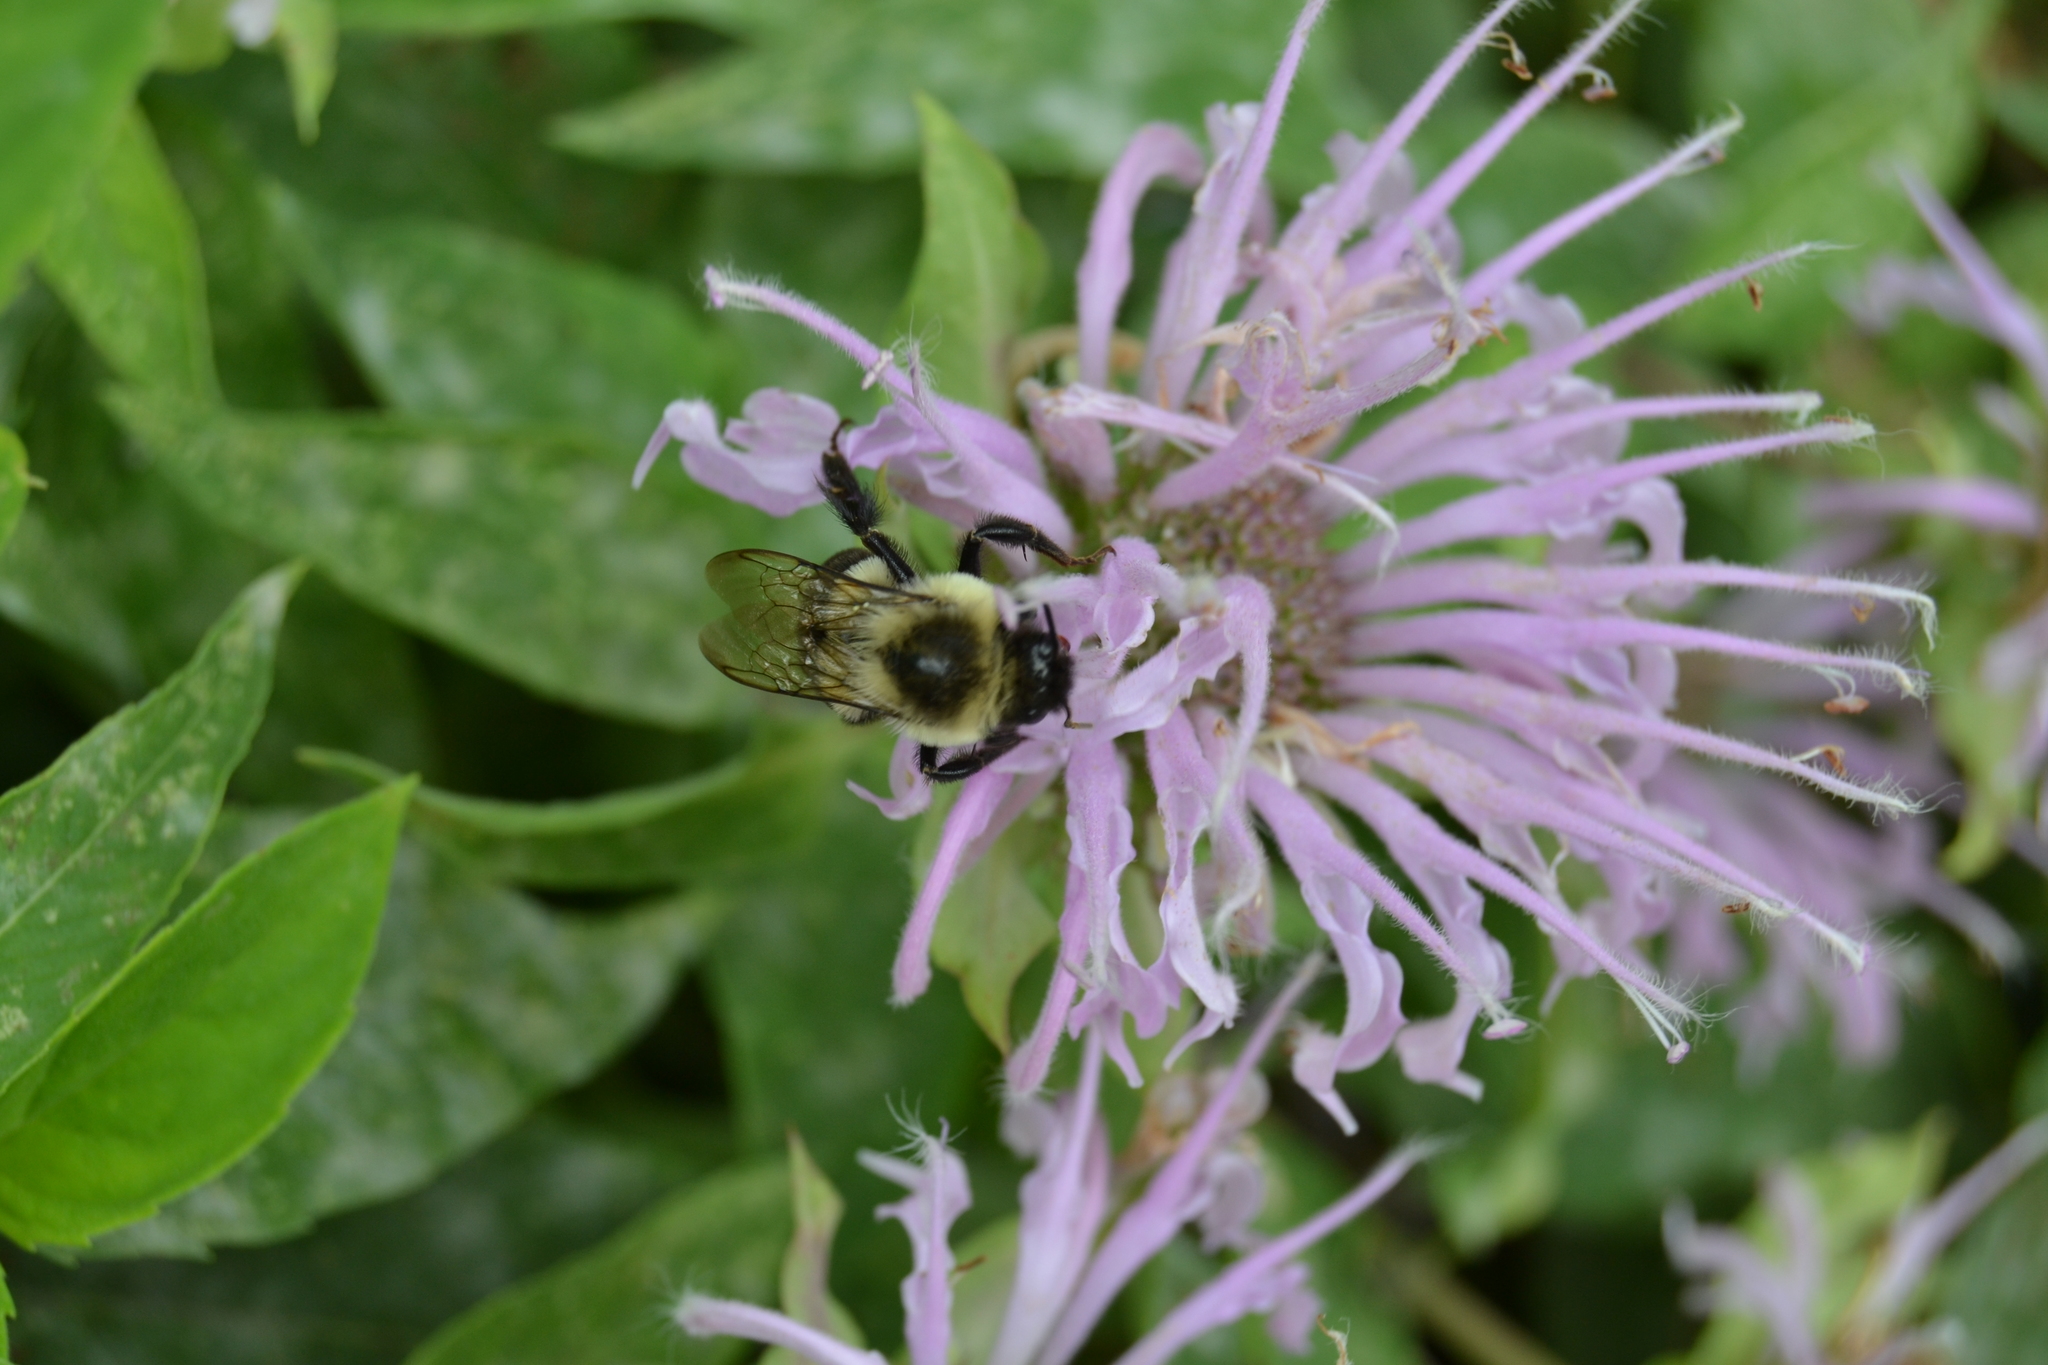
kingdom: Animalia
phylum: Arthropoda
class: Insecta
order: Hymenoptera
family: Apidae
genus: Bombus
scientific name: Bombus impatiens
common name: Common eastern bumble bee
